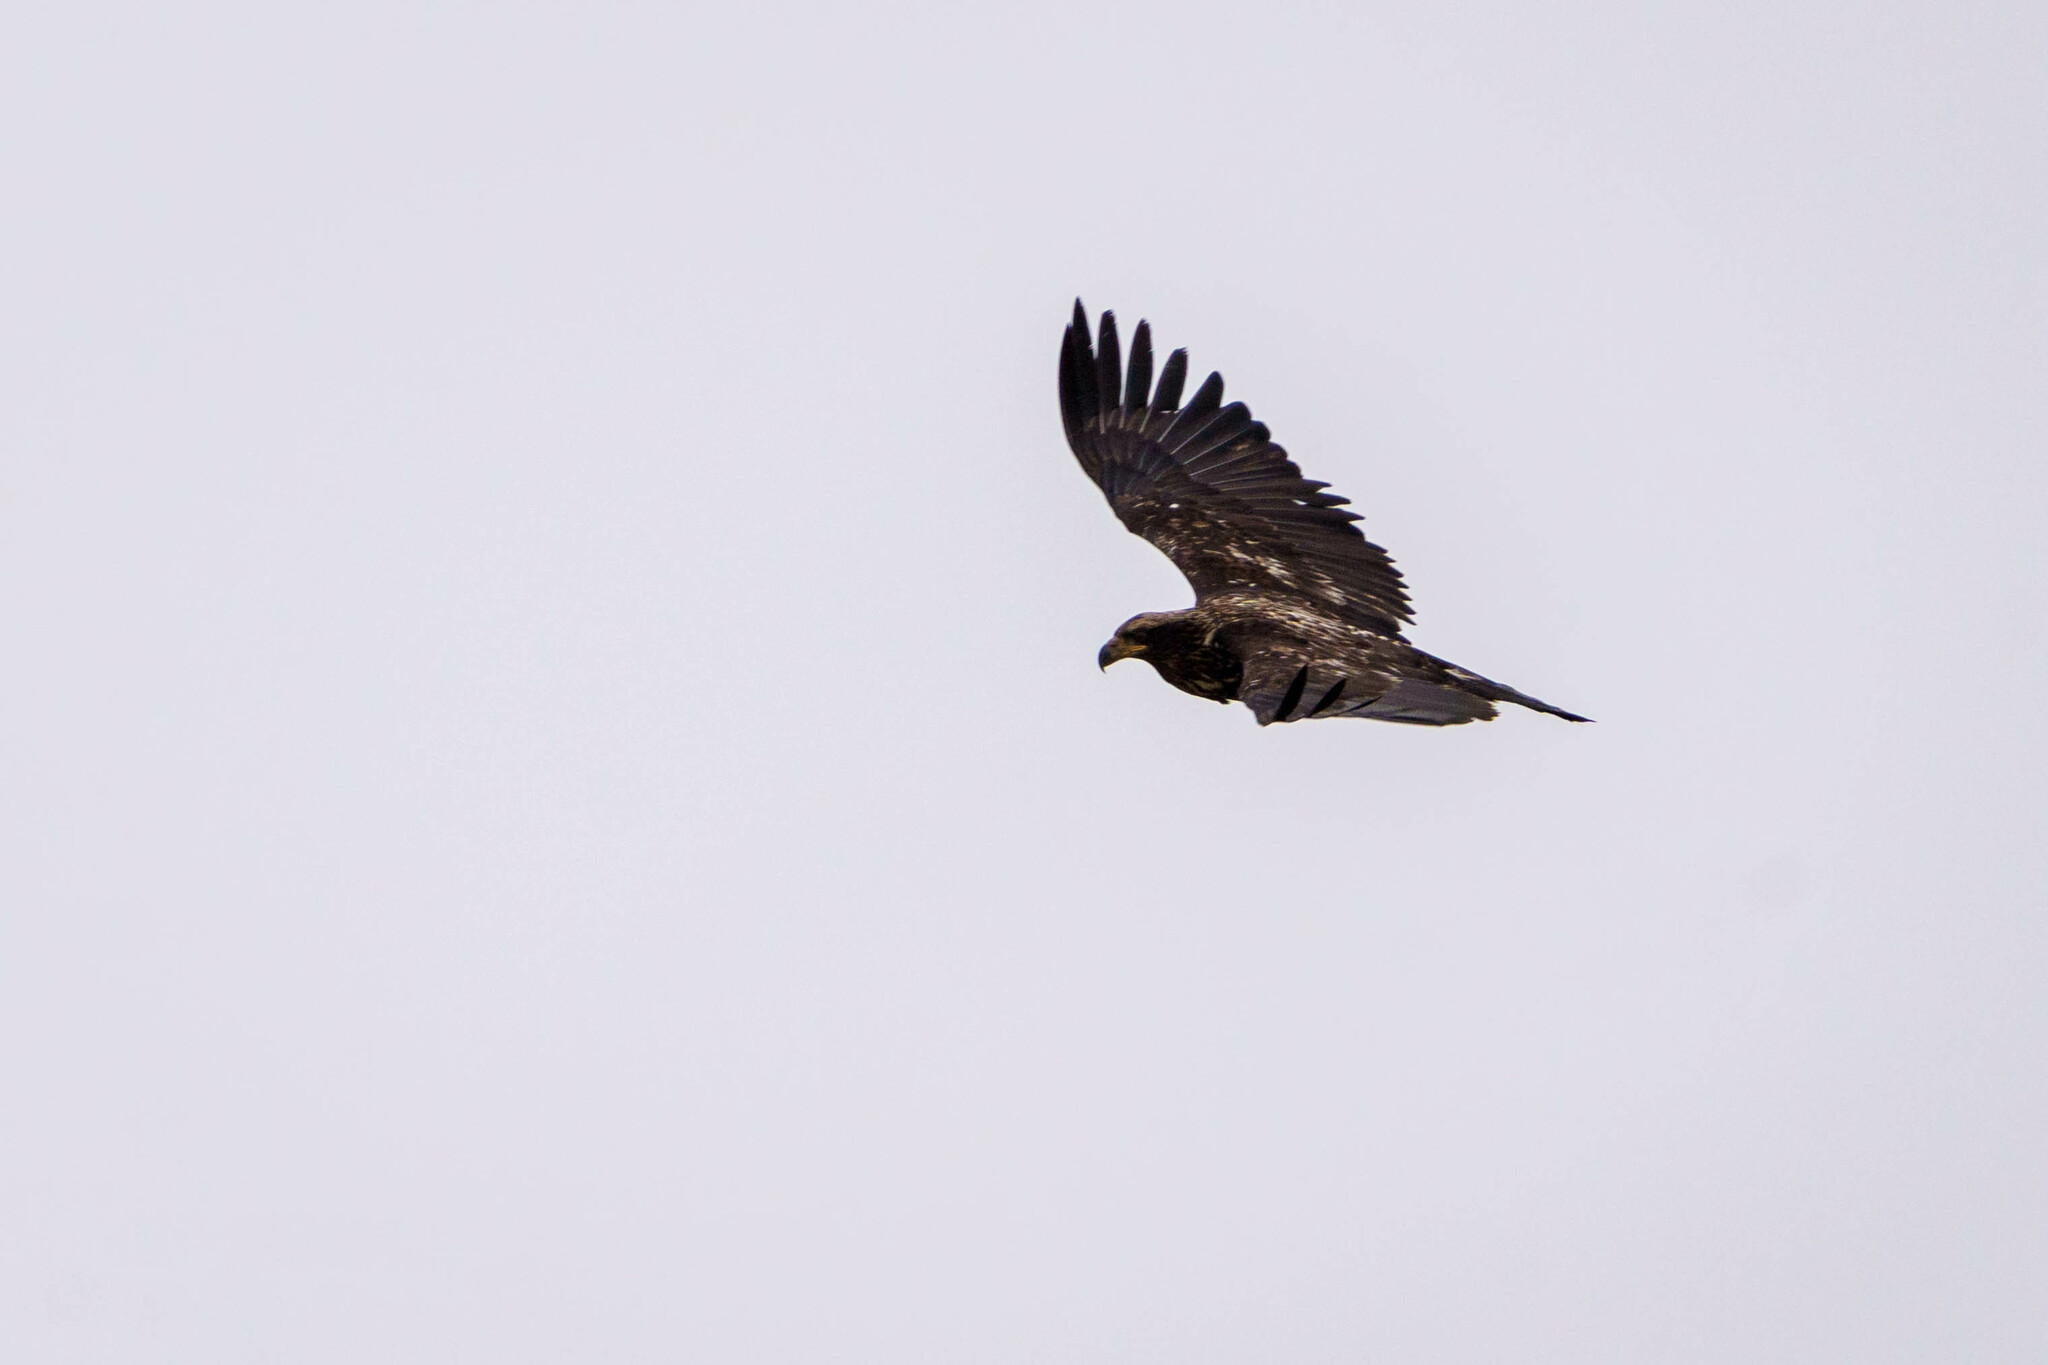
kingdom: Animalia
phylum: Chordata
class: Aves
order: Accipitriformes
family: Accipitridae
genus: Haliaeetus
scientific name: Haliaeetus leucocephalus
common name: Bald eagle
